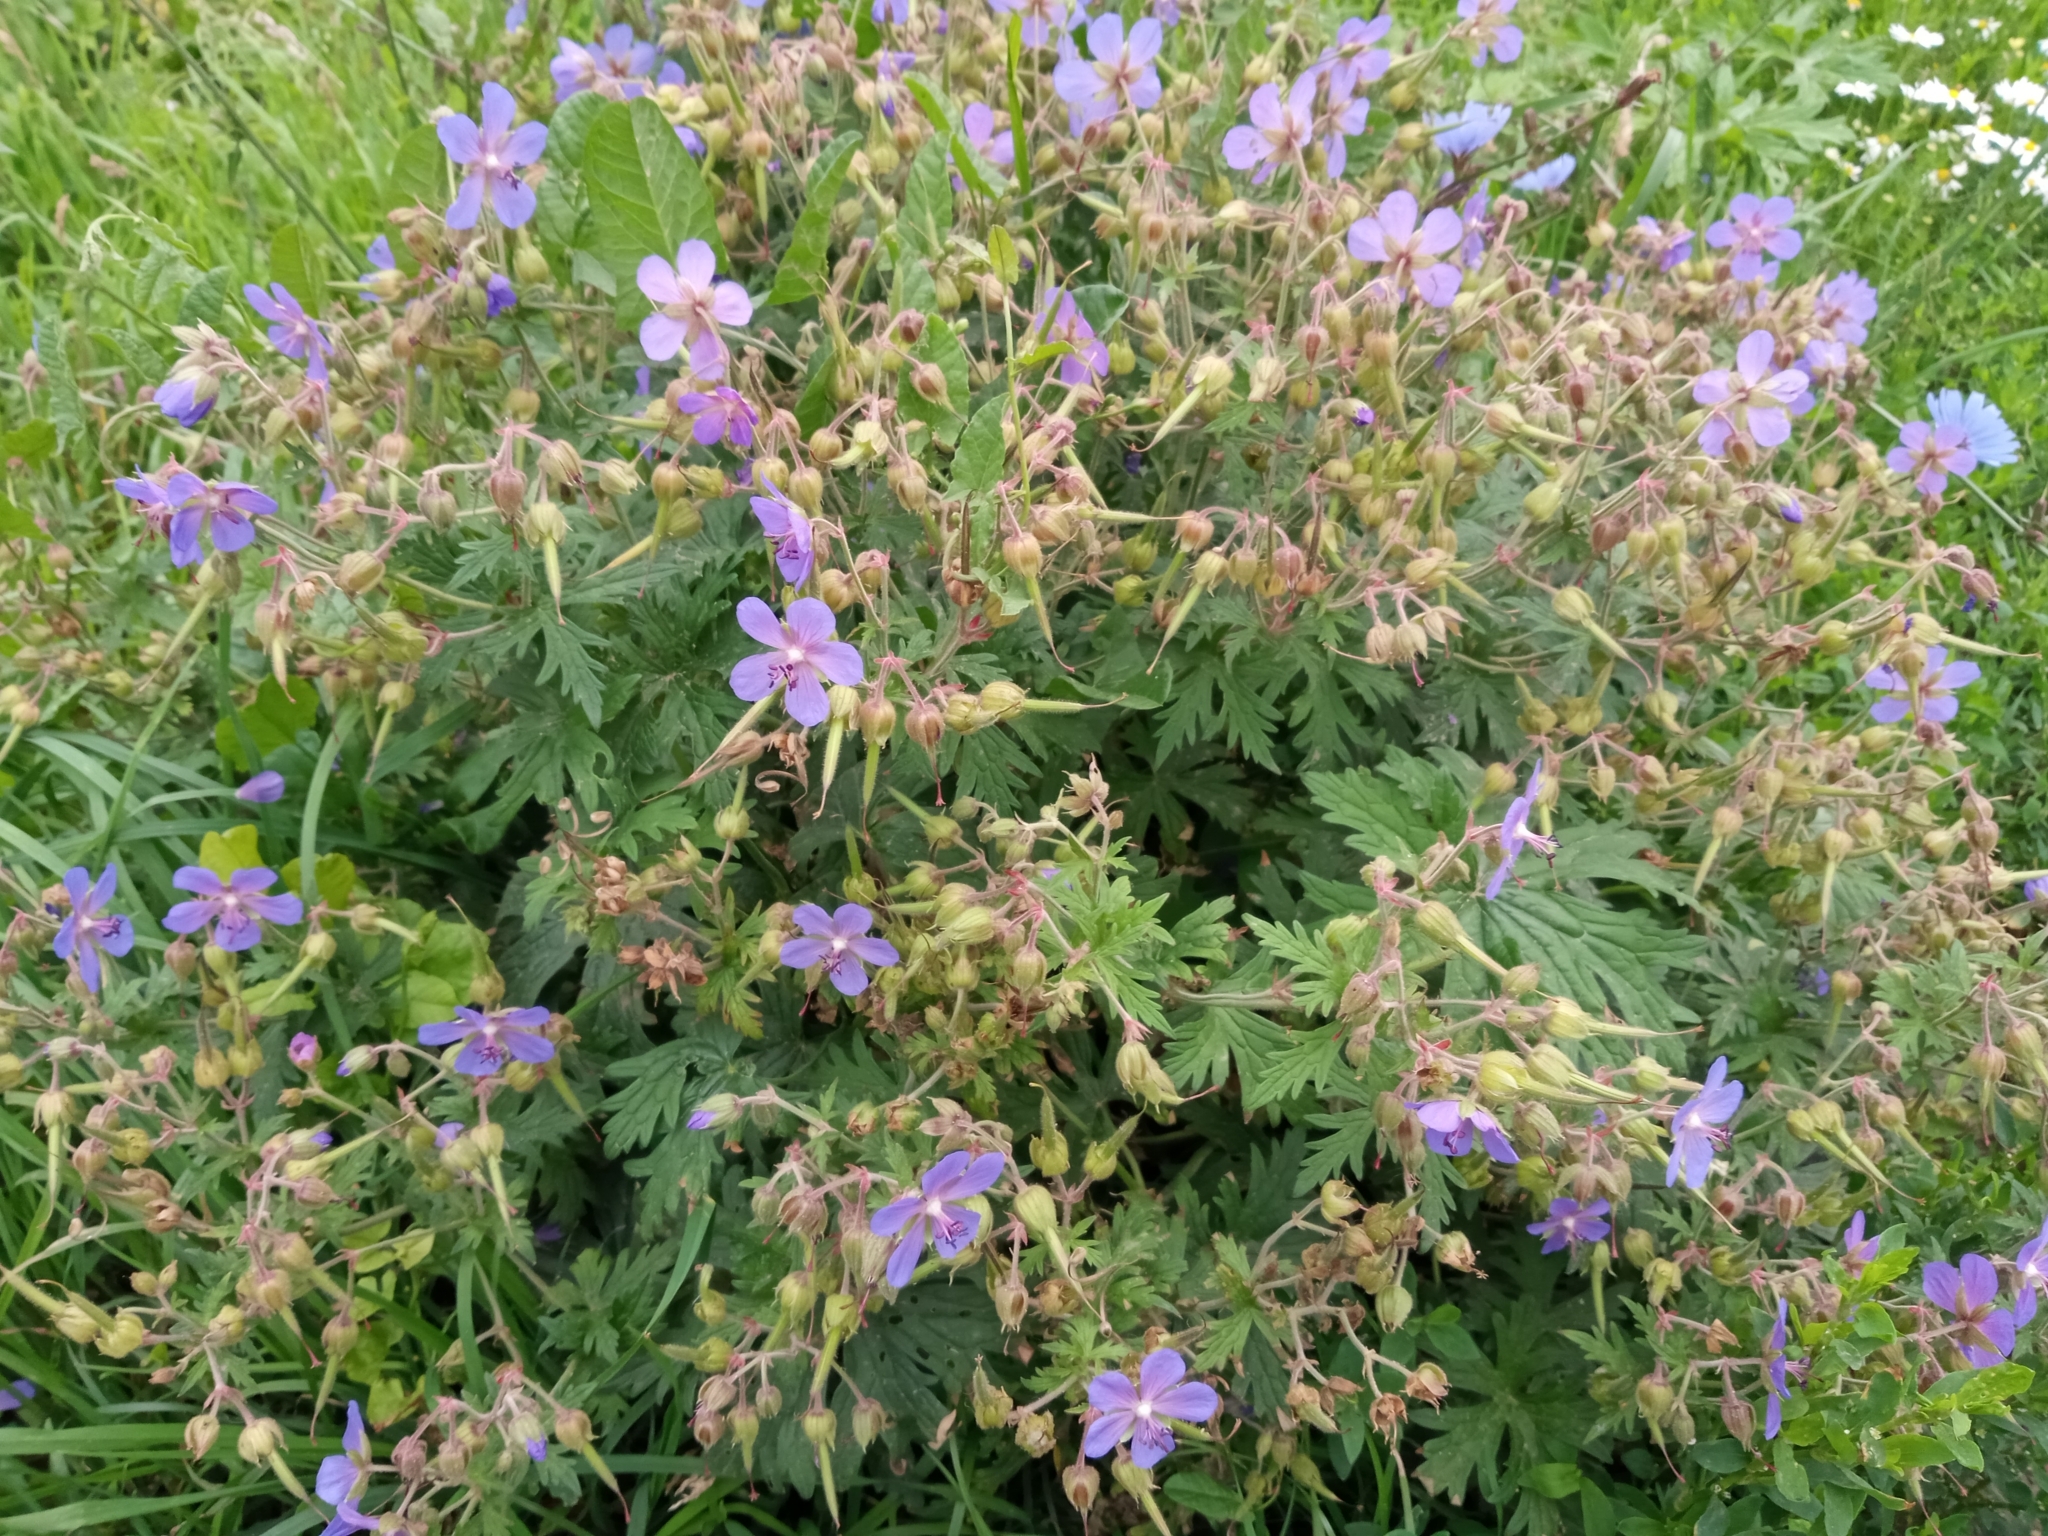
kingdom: Plantae
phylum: Tracheophyta
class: Magnoliopsida
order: Geraniales
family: Geraniaceae
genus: Geranium
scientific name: Geranium pratense
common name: Meadow crane's-bill
